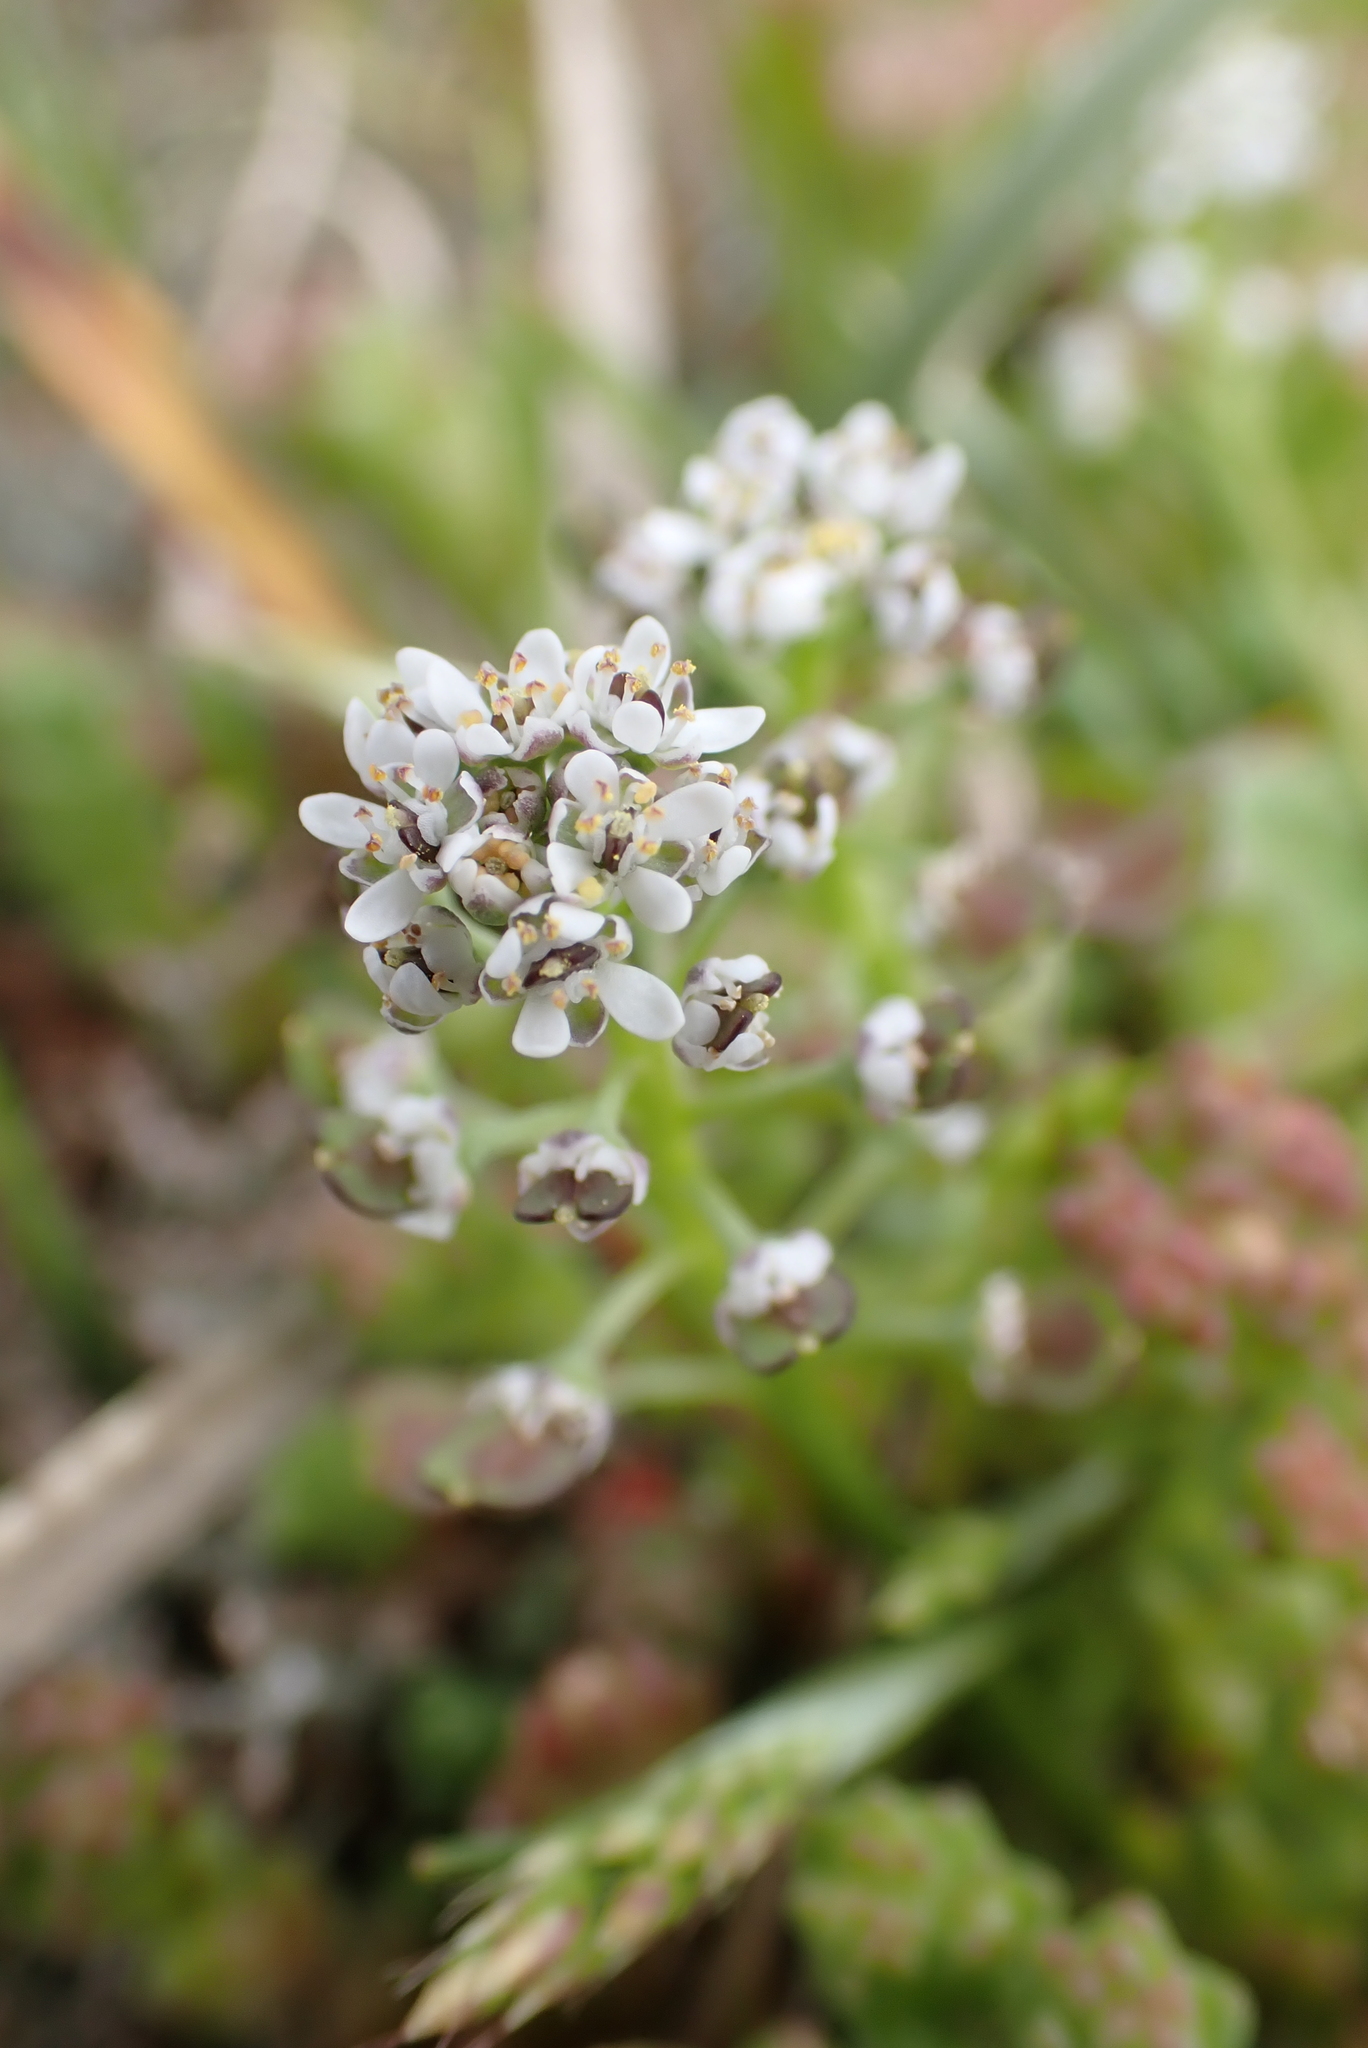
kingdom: Plantae
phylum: Tracheophyta
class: Magnoliopsida
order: Brassicales
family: Brassicaceae
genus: Teesdalia
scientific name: Teesdalia nudicaulis
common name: Shepherd's cress
